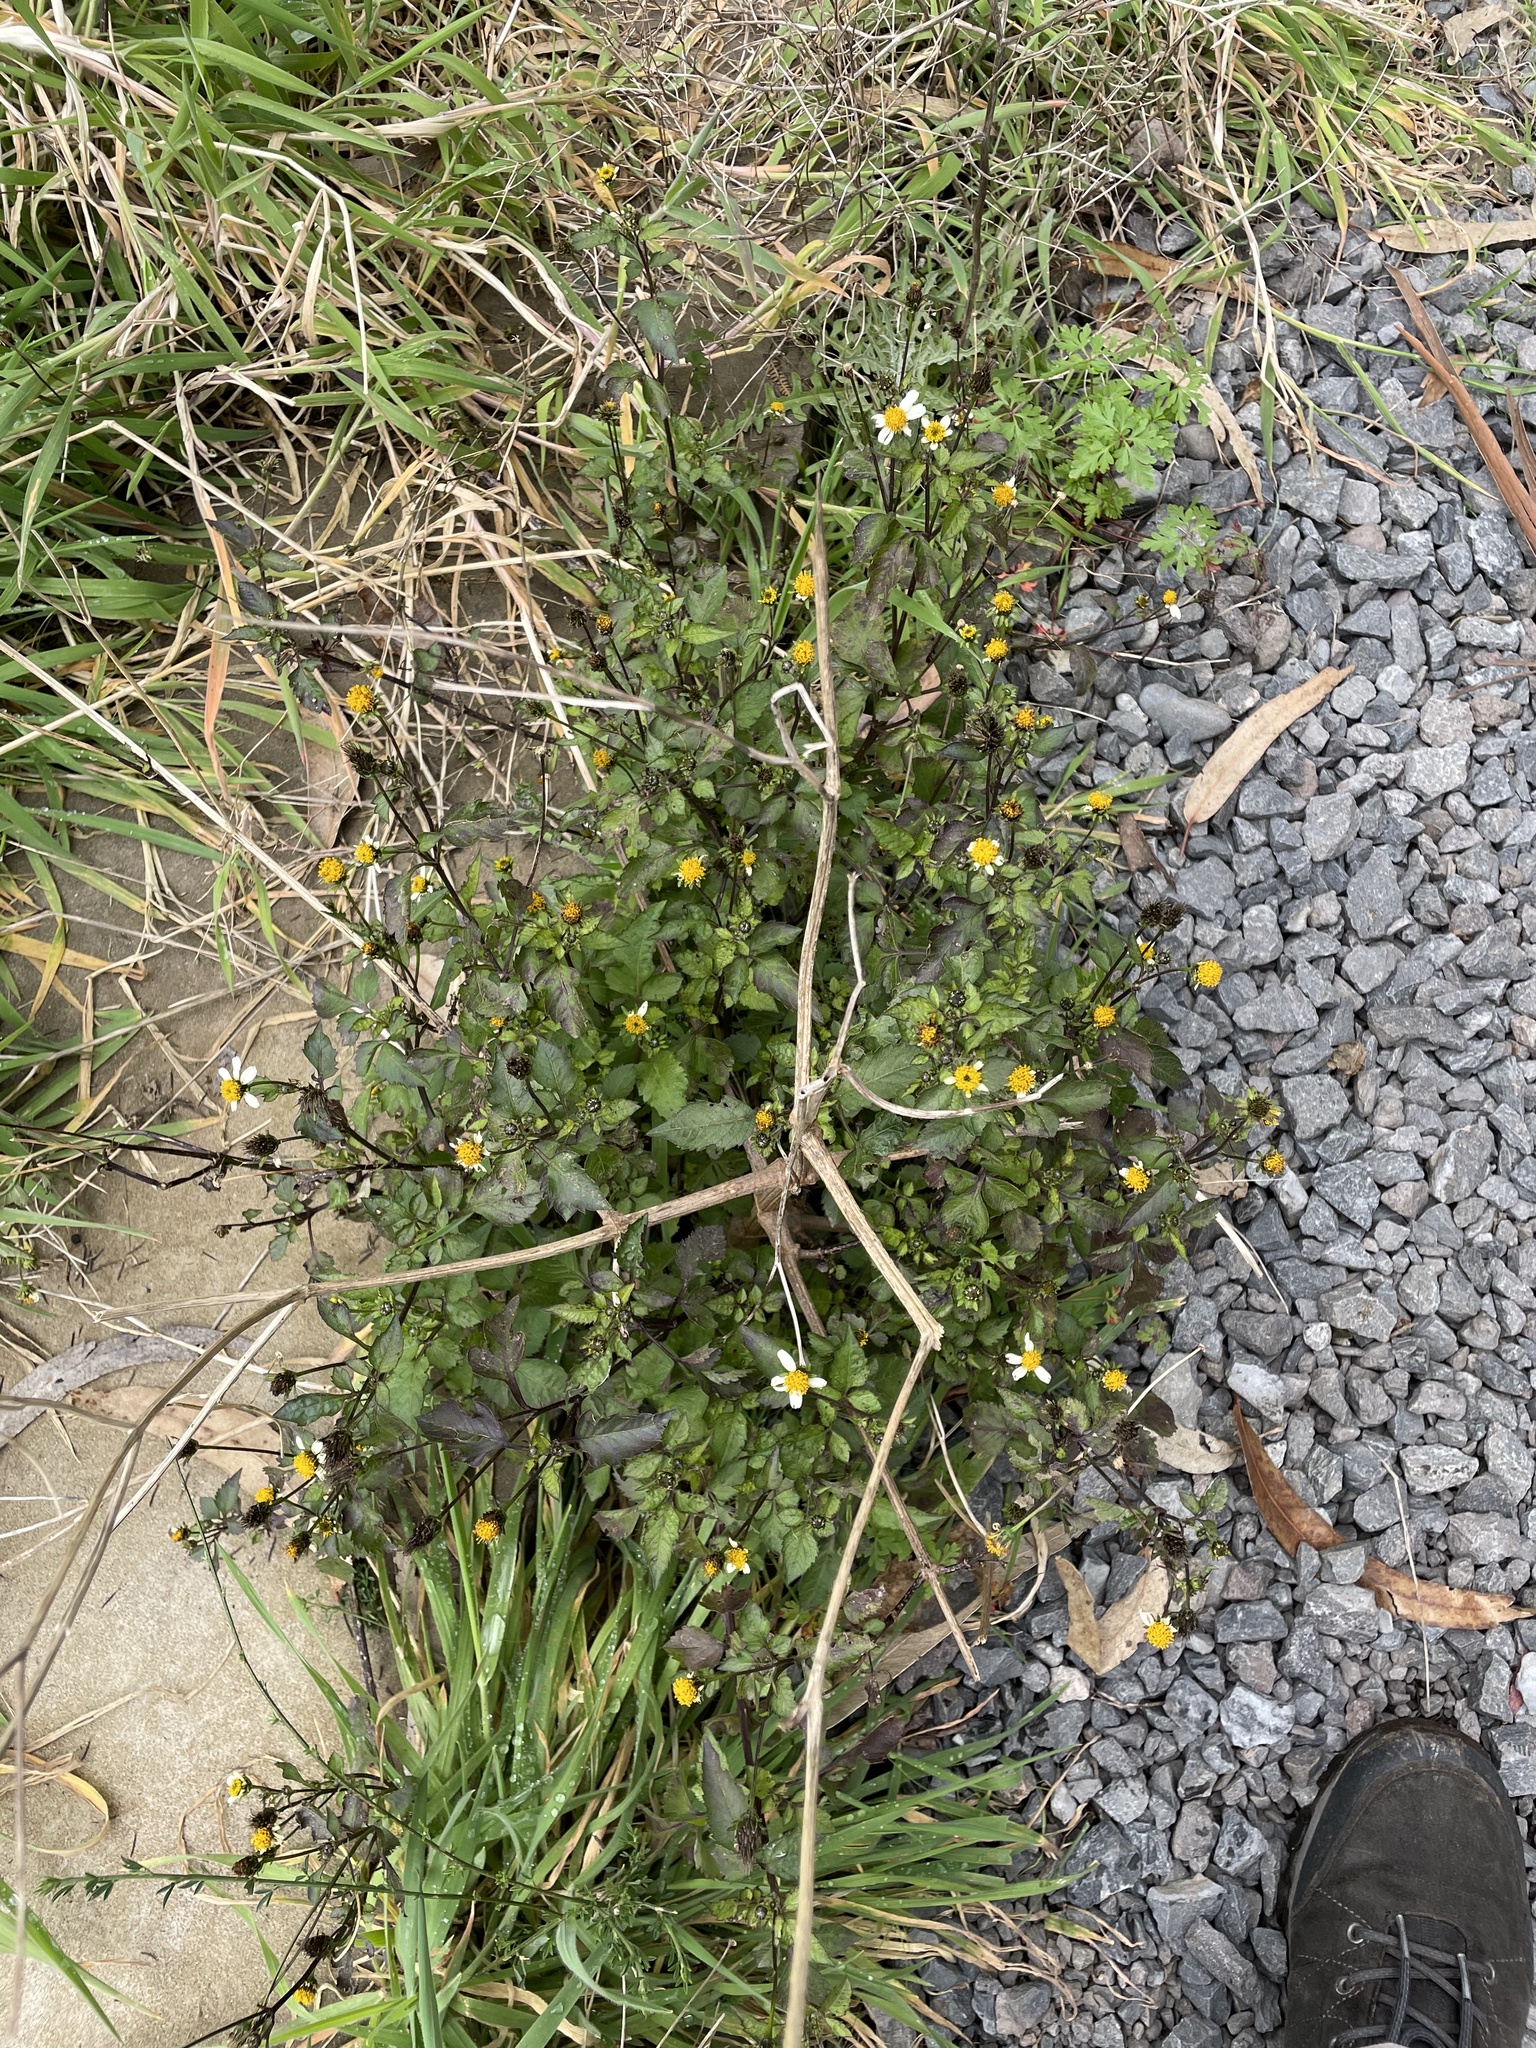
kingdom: Plantae
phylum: Tracheophyta
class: Magnoliopsida
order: Asterales
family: Asteraceae
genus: Bidens
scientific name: Bidens pilosa
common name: Black-jack
